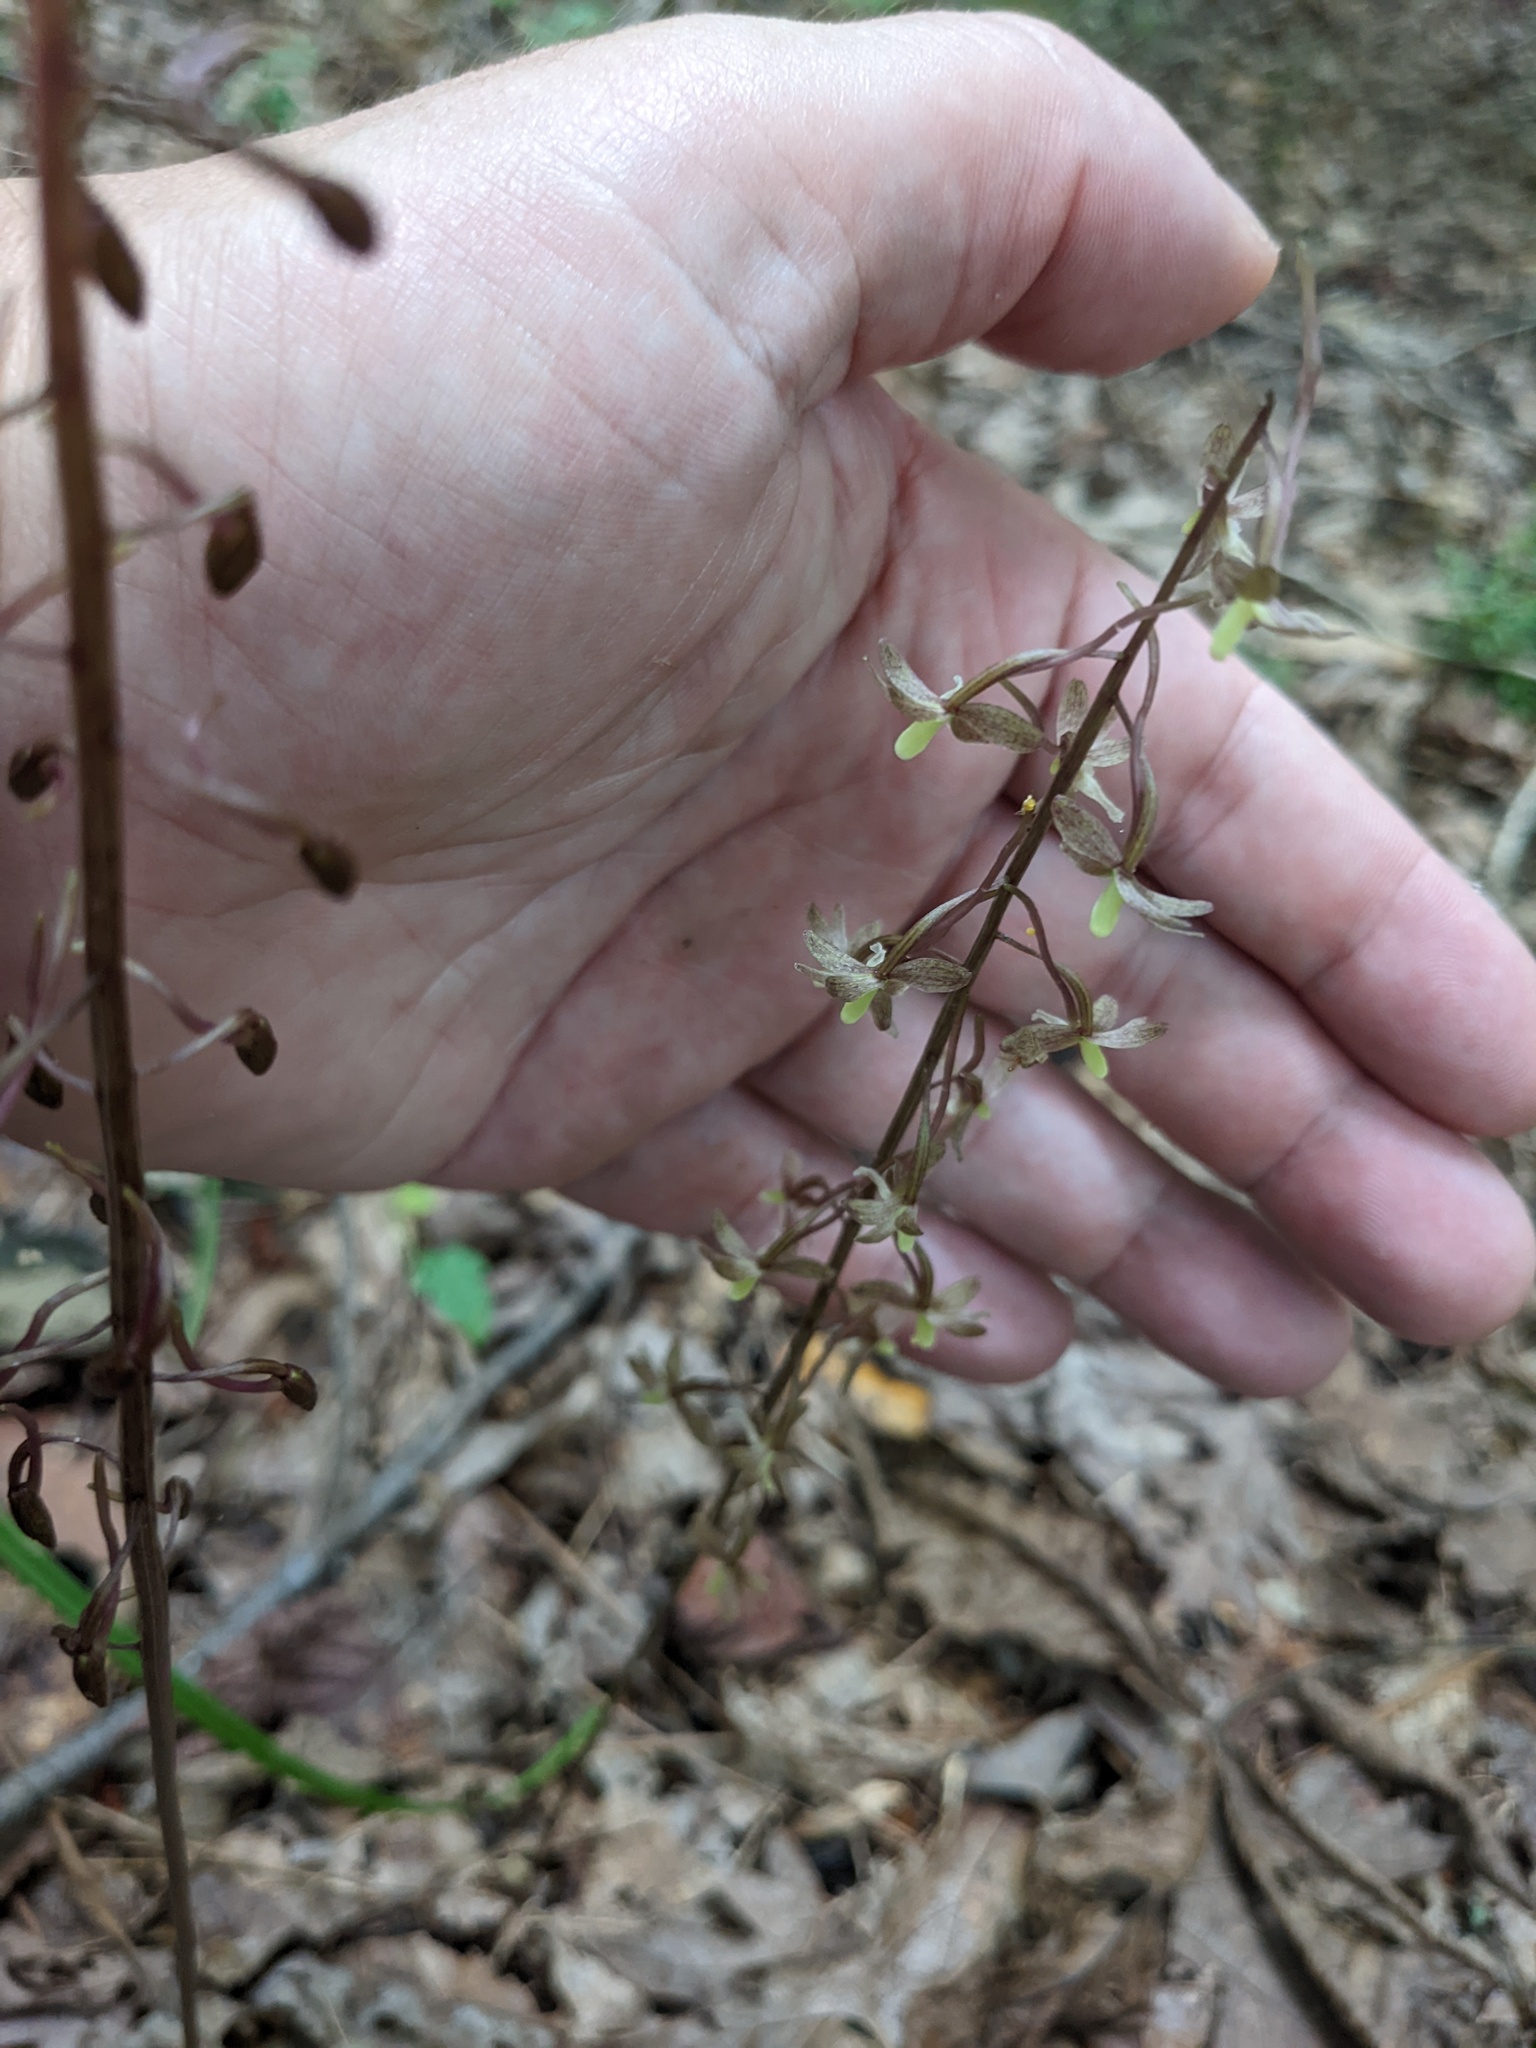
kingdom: Plantae
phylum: Tracheophyta
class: Liliopsida
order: Asparagales
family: Orchidaceae
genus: Tipularia
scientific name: Tipularia discolor
